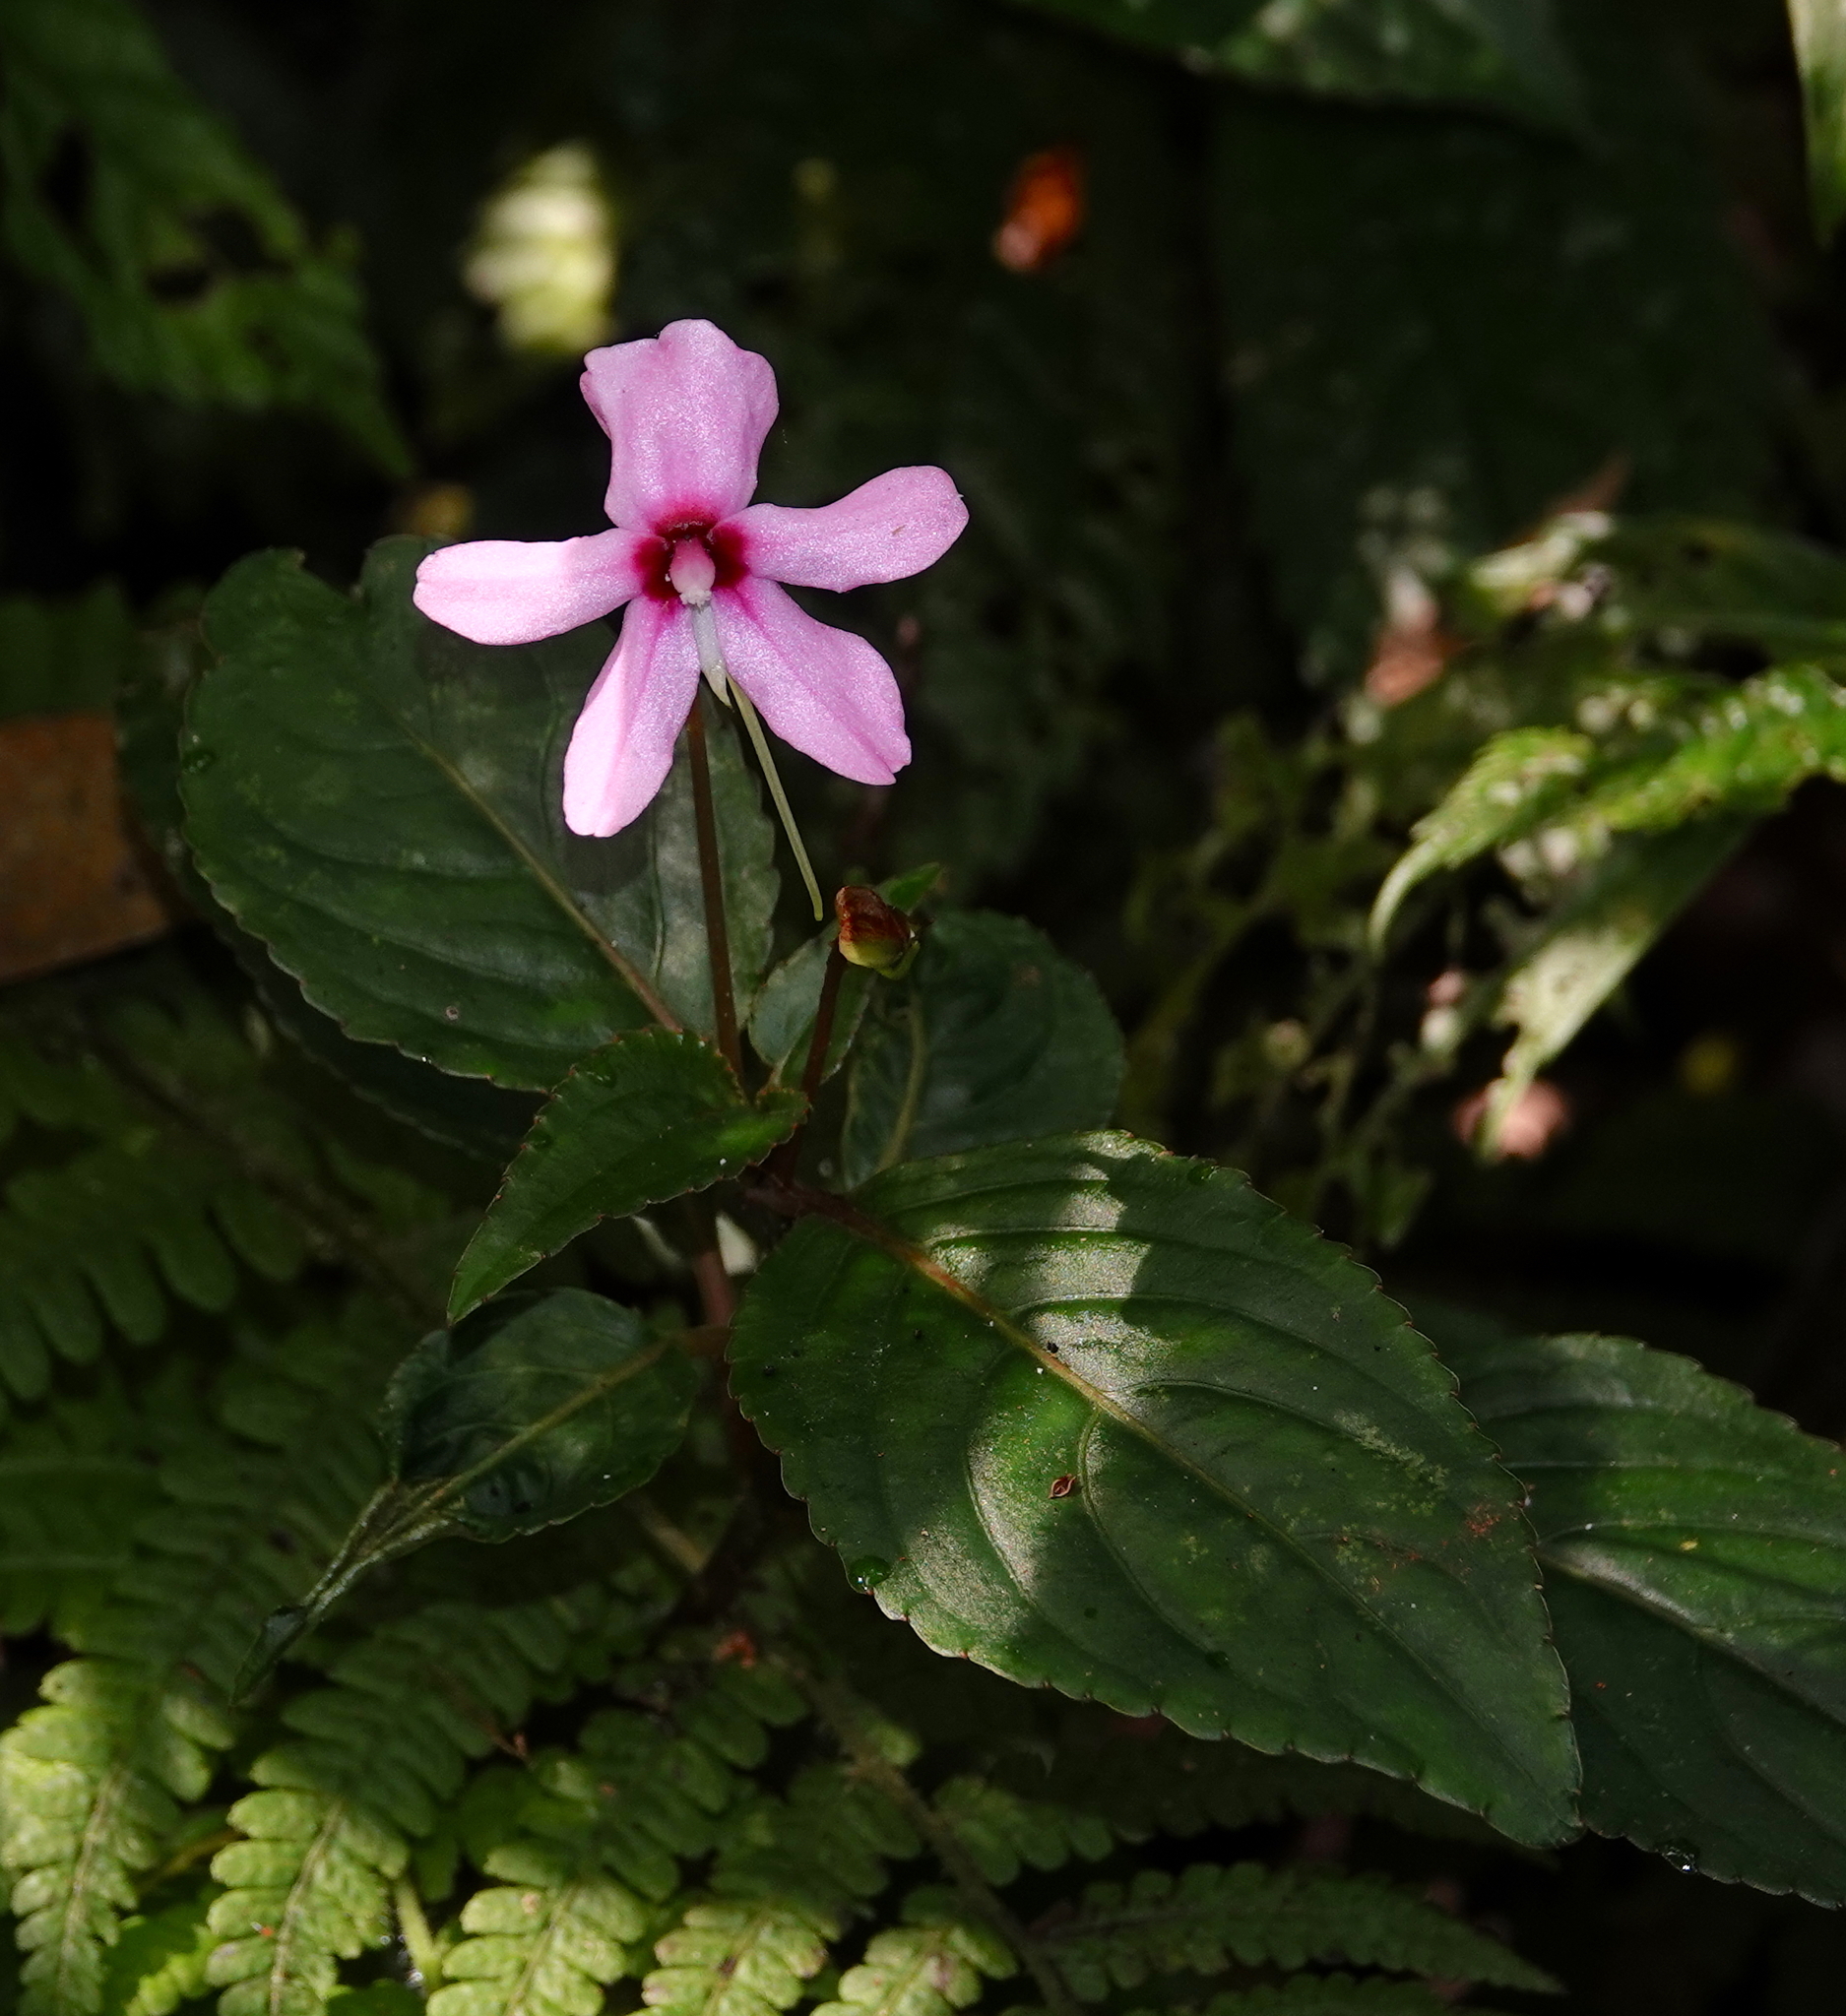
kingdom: Plantae
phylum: Tracheophyta
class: Magnoliopsida
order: Ericales
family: Balsaminaceae
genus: Impatiens
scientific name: Impatiens javensis
